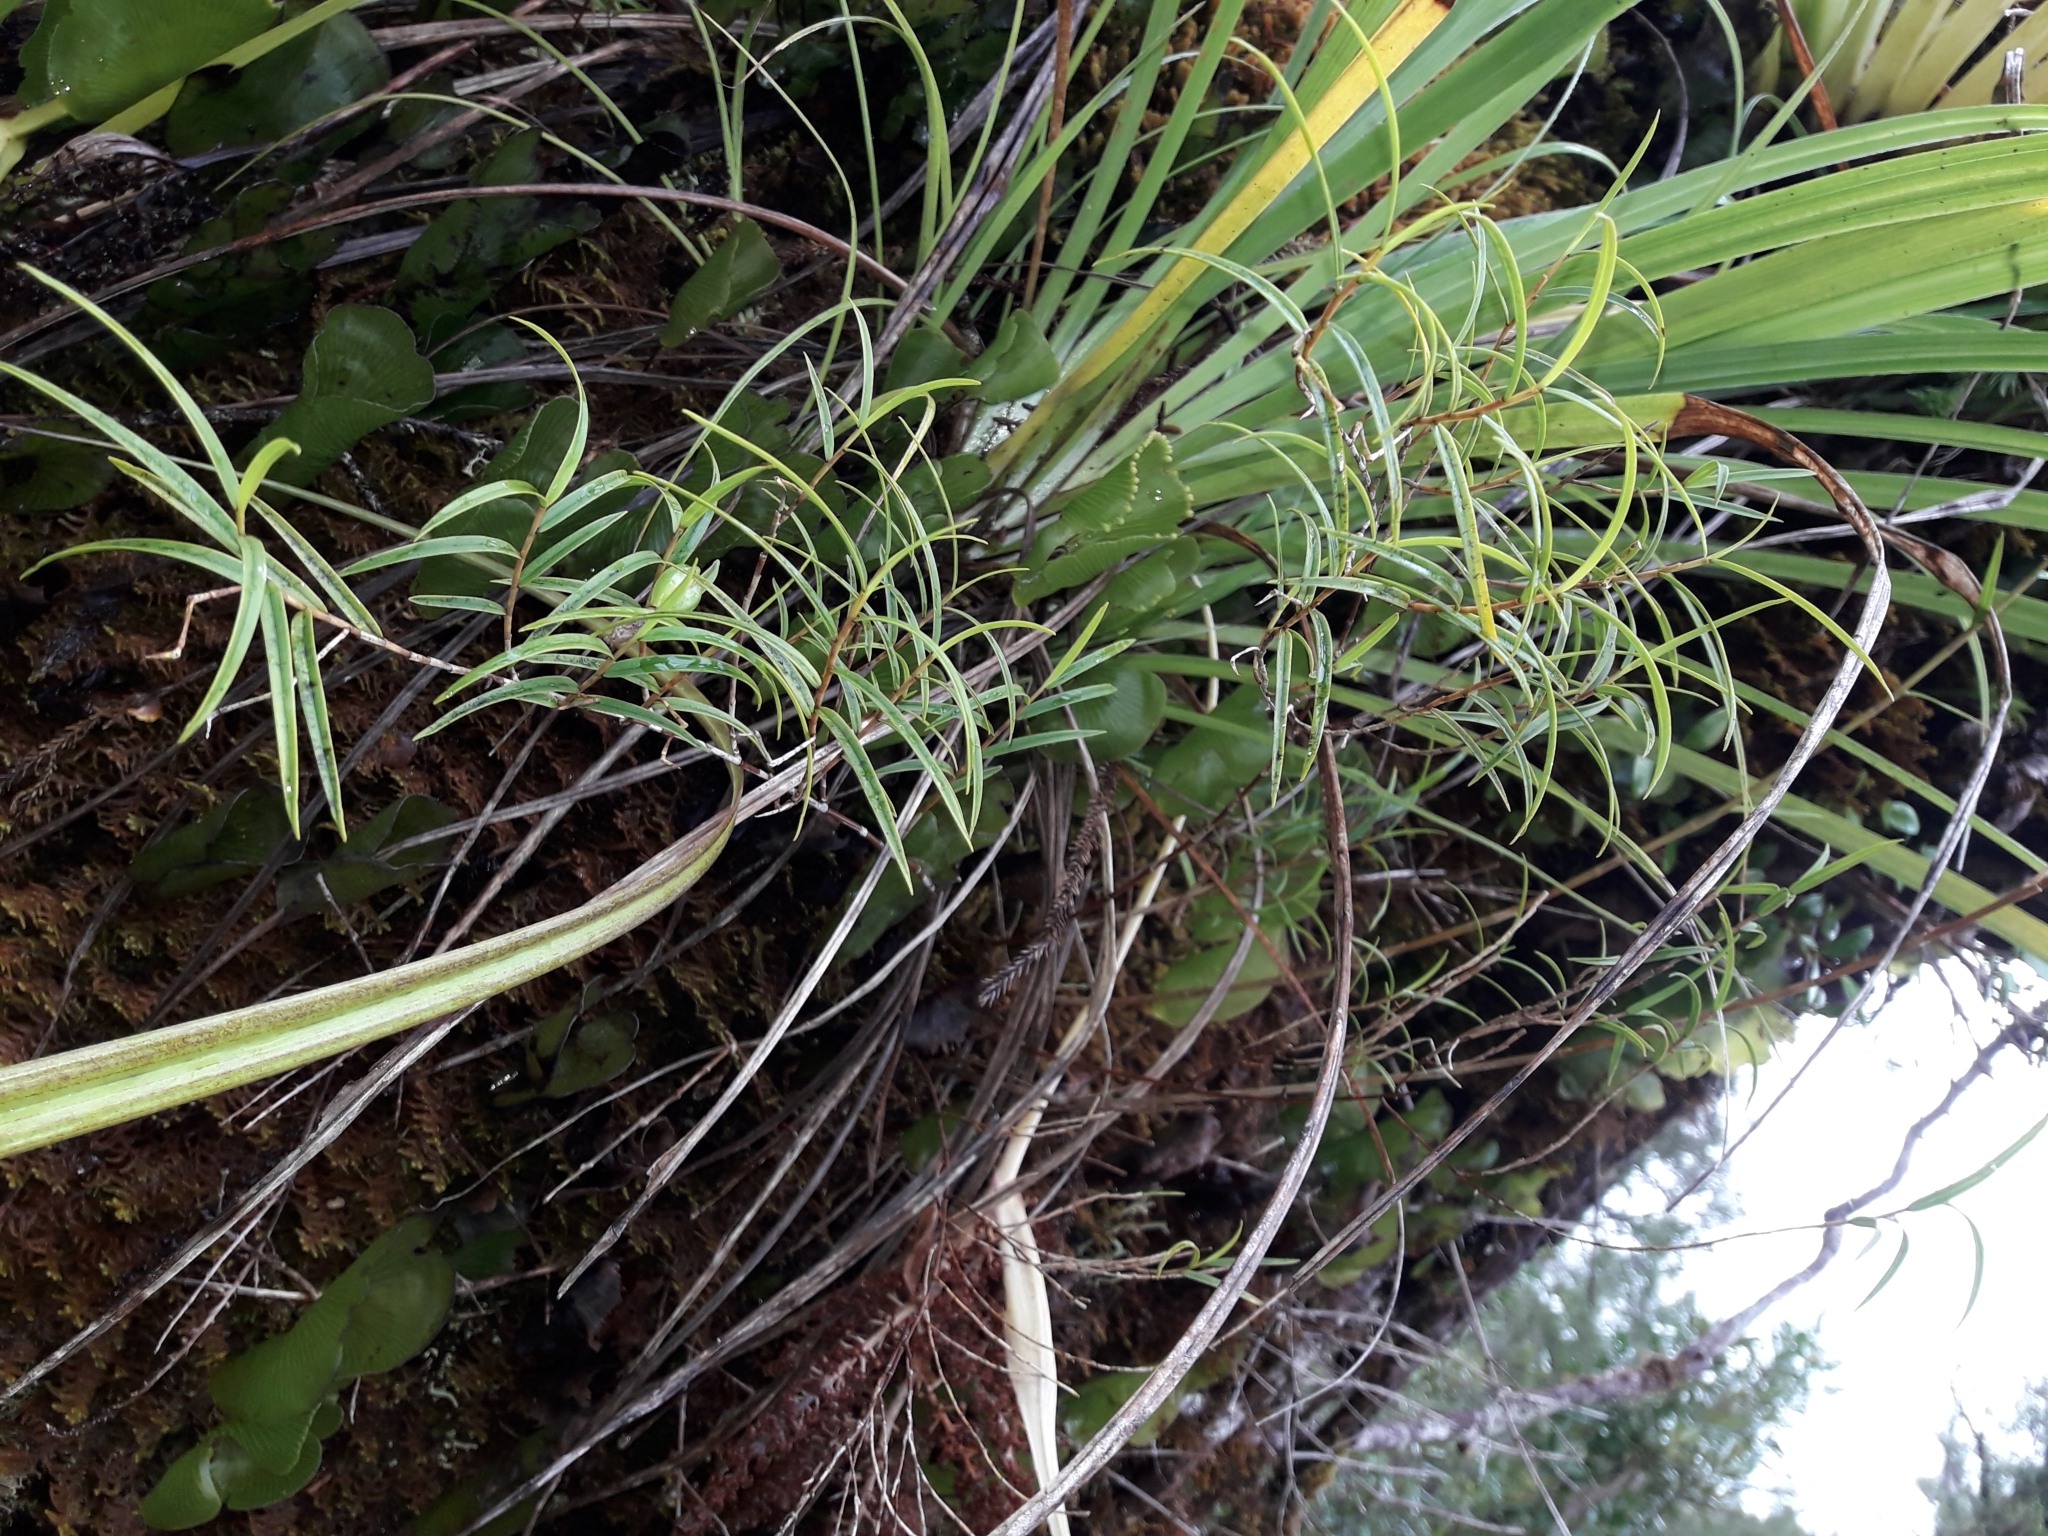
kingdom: Plantae
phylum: Tracheophyta
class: Liliopsida
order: Asparagales
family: Orchidaceae
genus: Dendrobium
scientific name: Dendrobium cunninghamii
